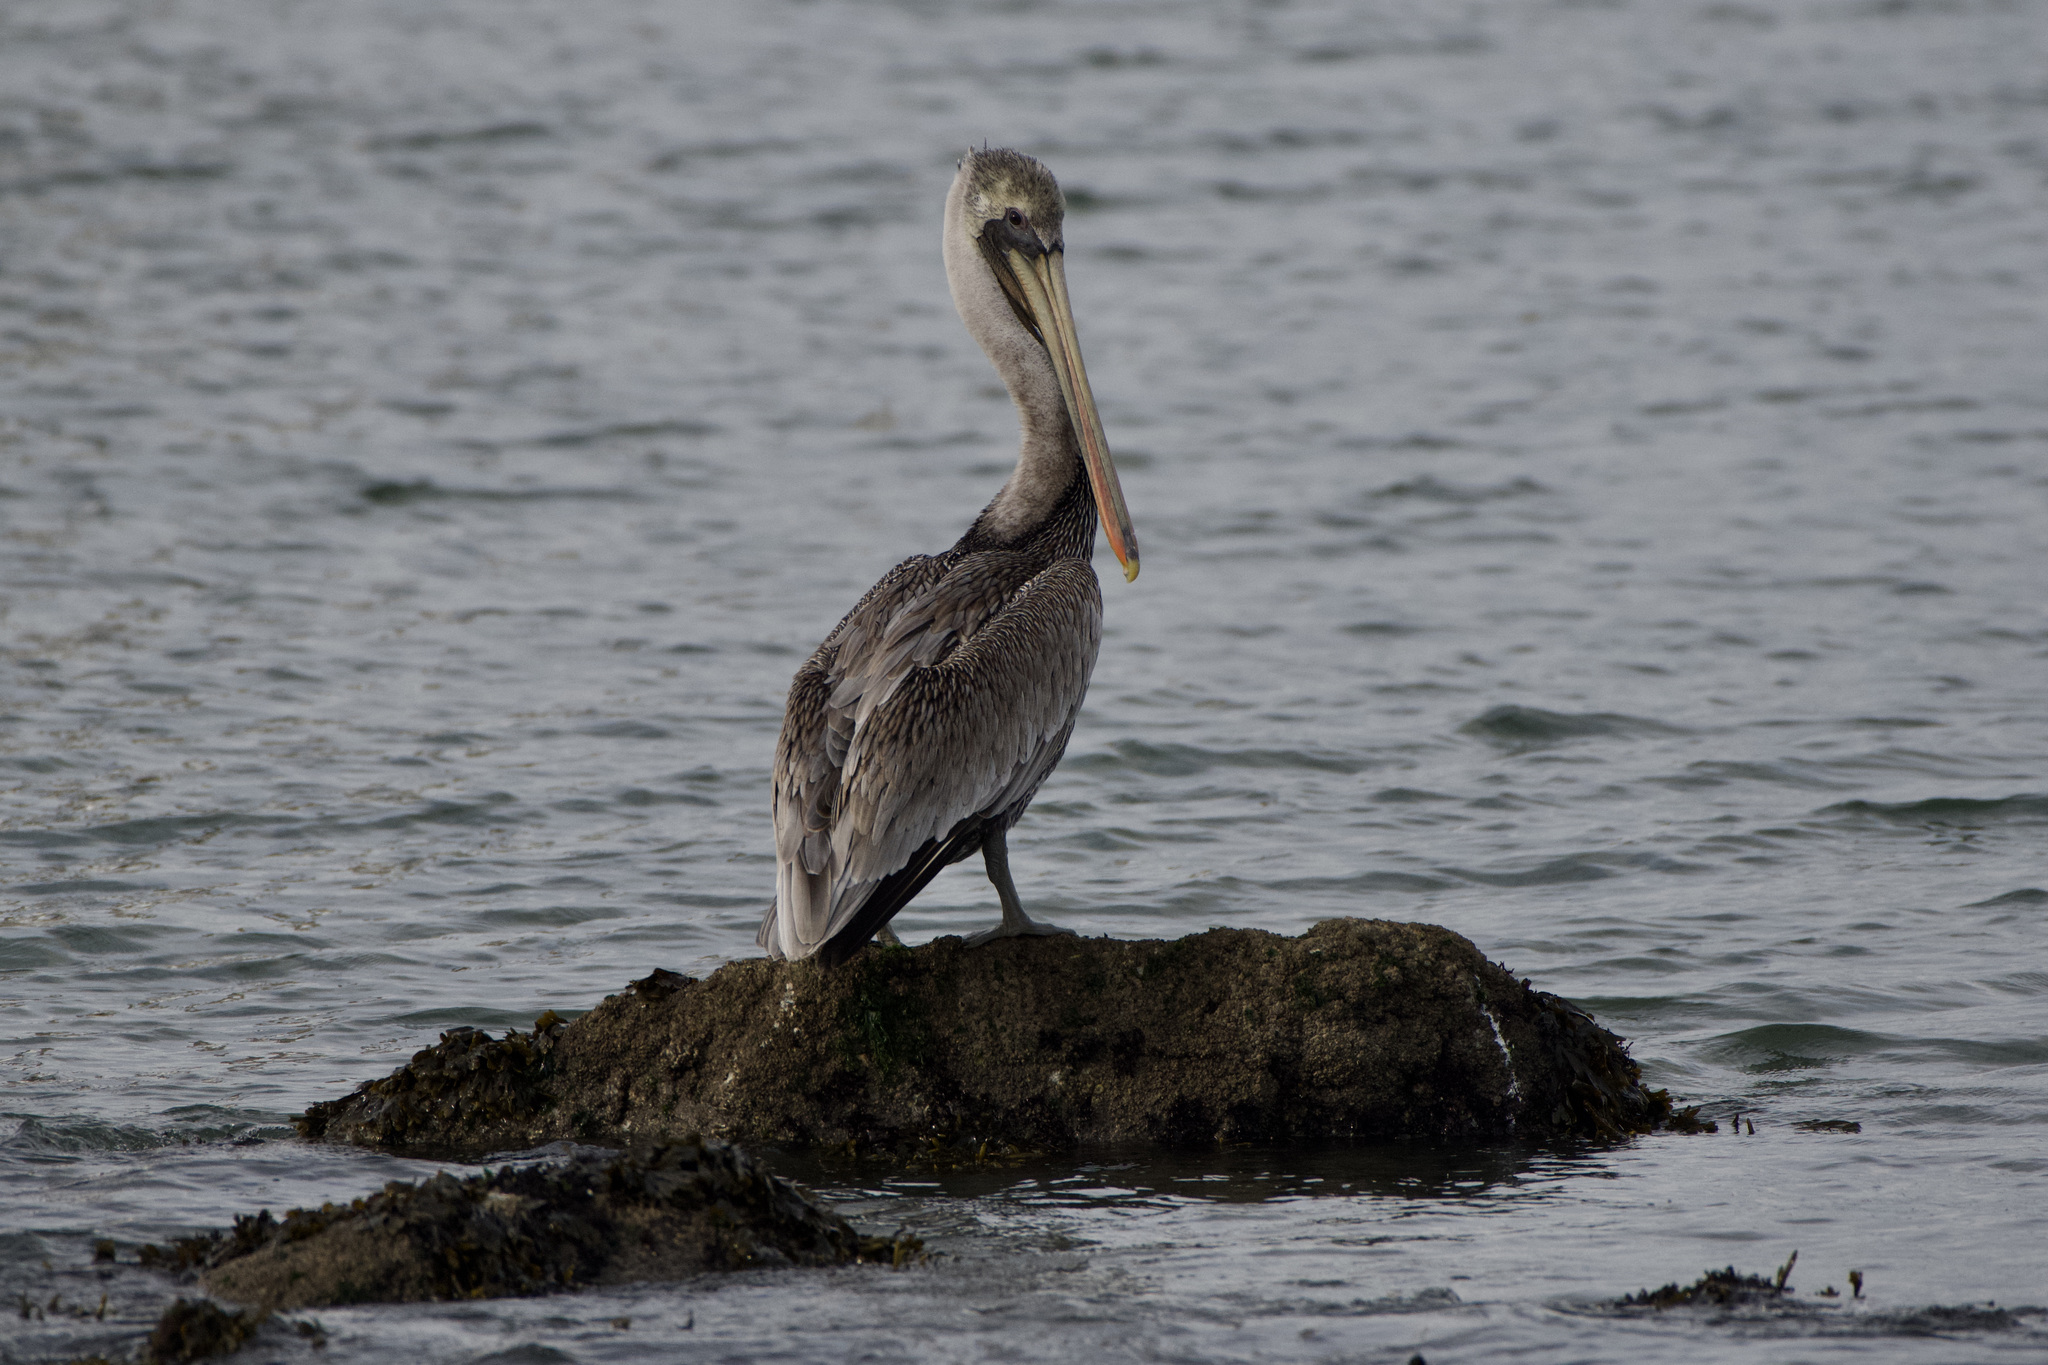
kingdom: Animalia
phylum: Chordata
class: Aves
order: Pelecaniformes
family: Pelecanidae
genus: Pelecanus
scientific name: Pelecanus occidentalis
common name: Brown pelican
